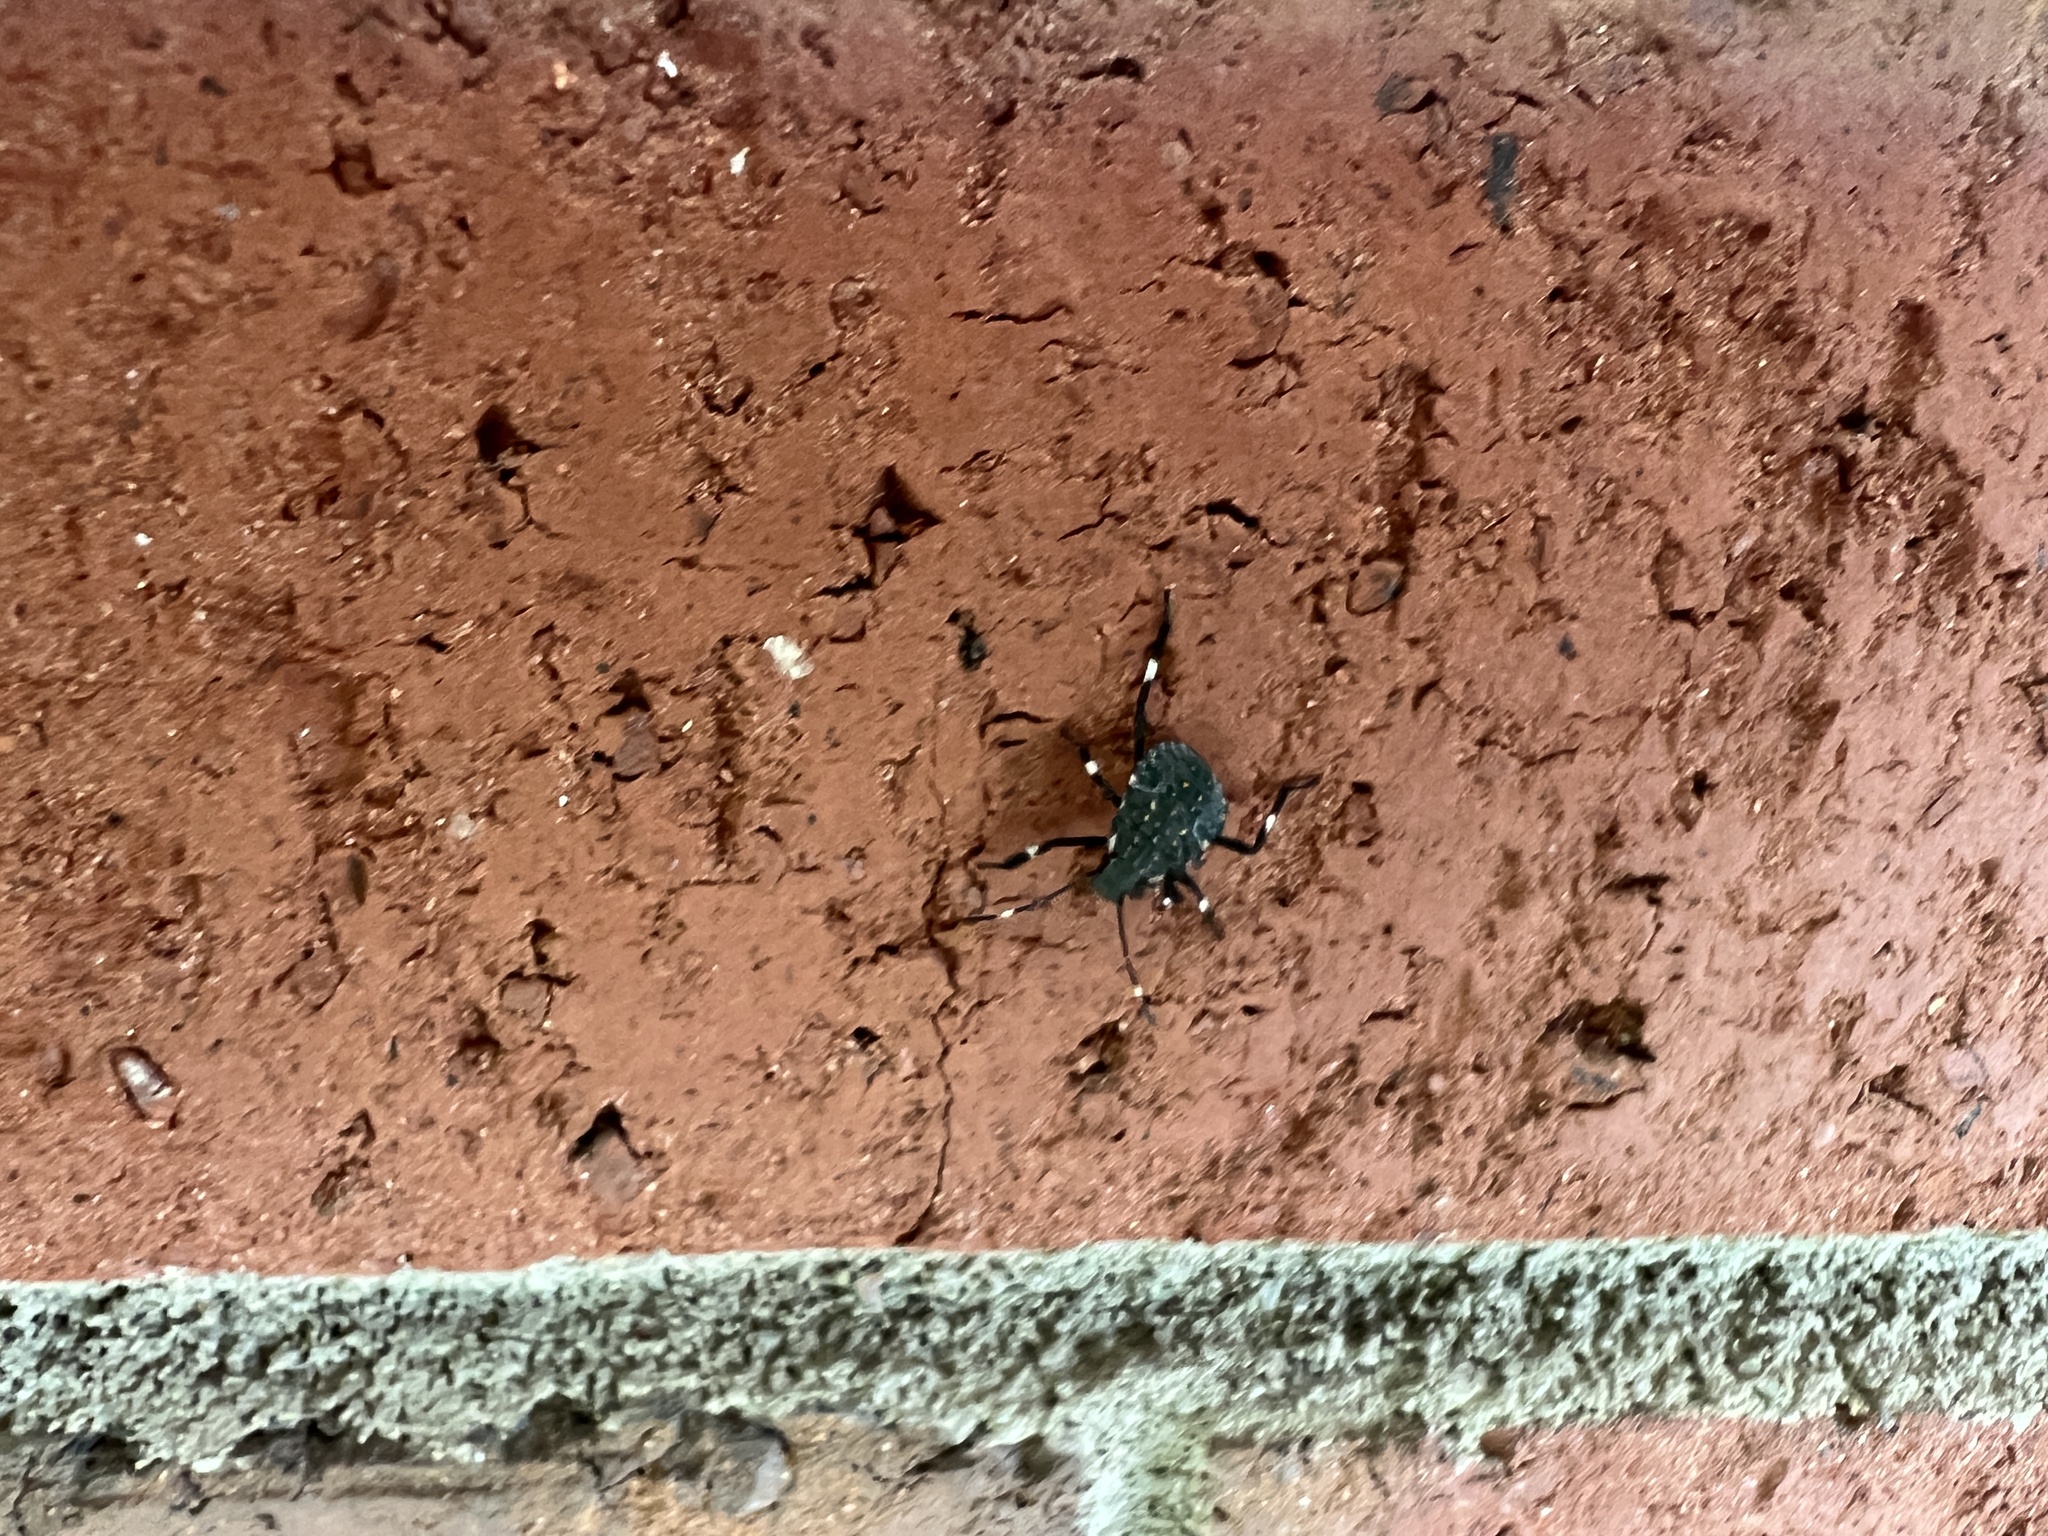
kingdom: Animalia
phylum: Arthropoda
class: Insecta
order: Hemiptera
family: Pentatomidae
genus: Halyomorpha
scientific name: Halyomorpha halys
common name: Brown marmorated stink bug
